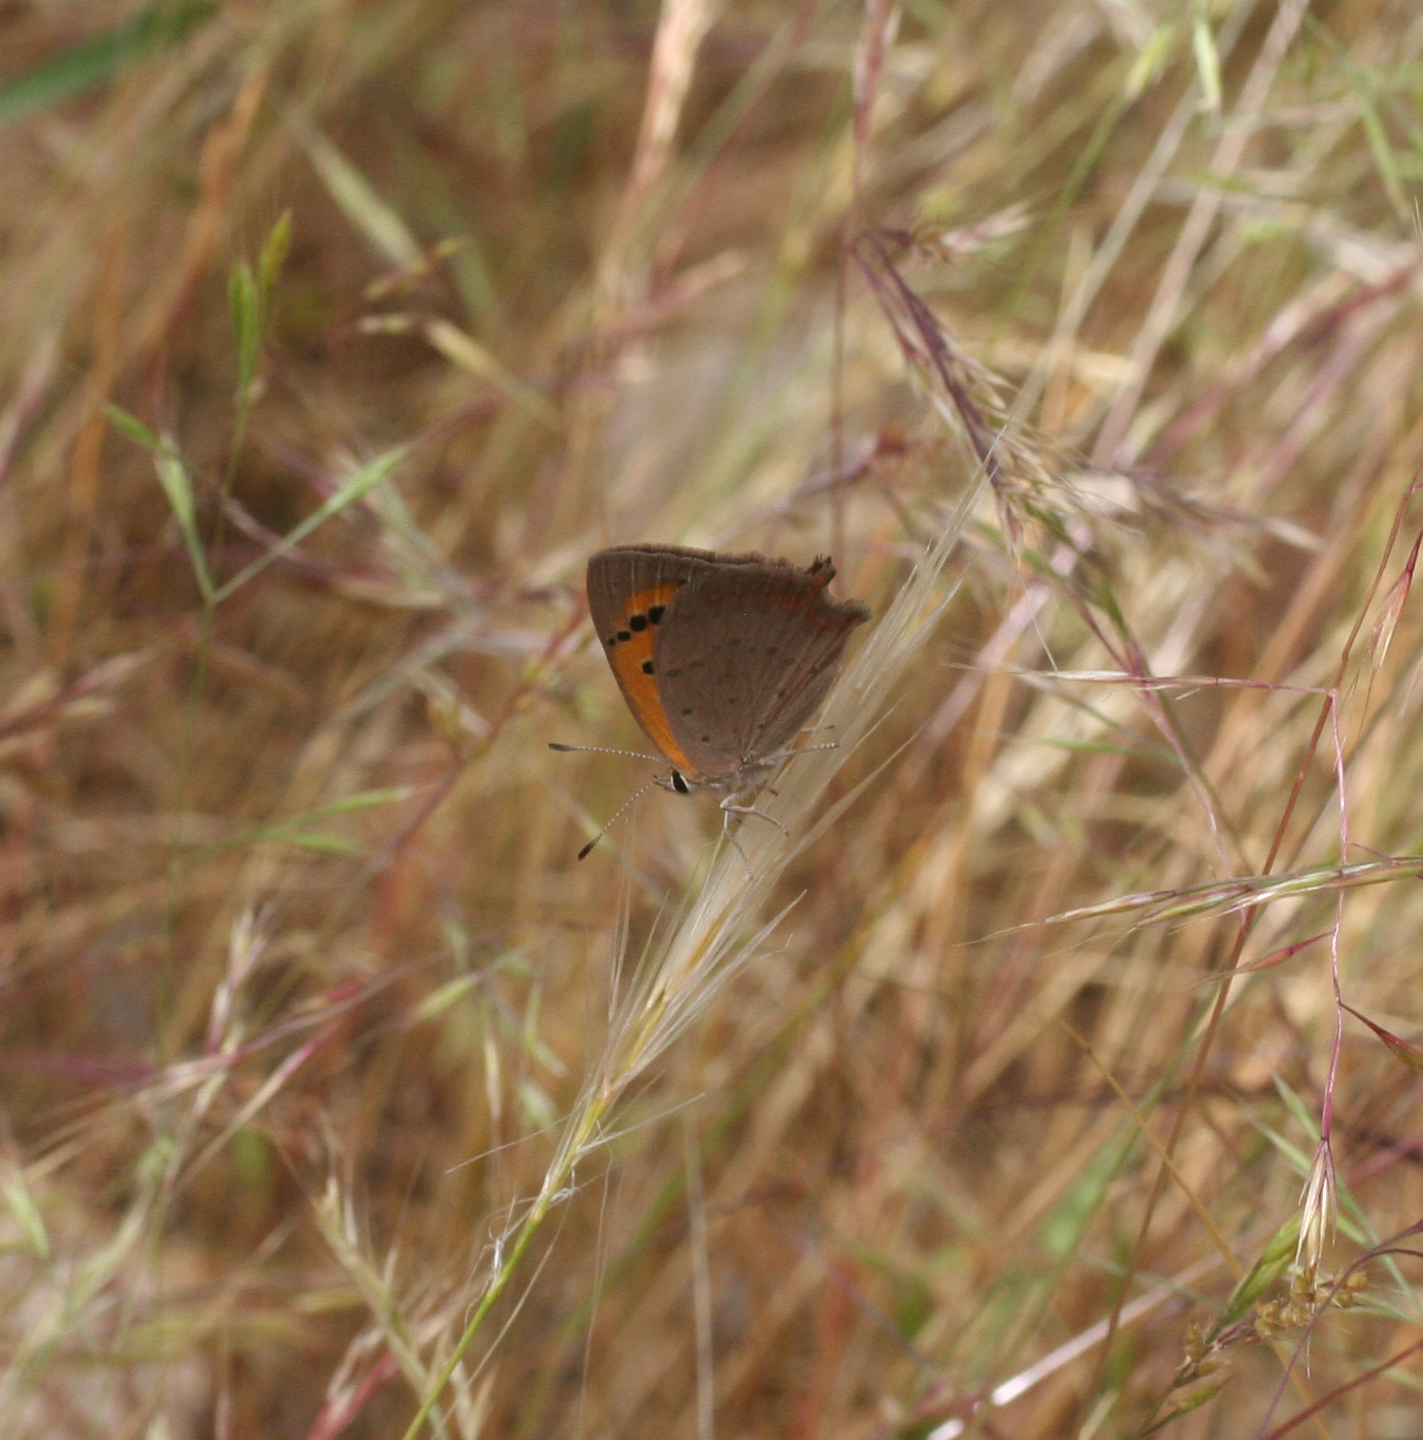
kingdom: Animalia
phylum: Arthropoda
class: Insecta
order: Lepidoptera
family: Lycaenidae
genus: Lycaena
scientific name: Lycaena phlaeas
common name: Small copper
